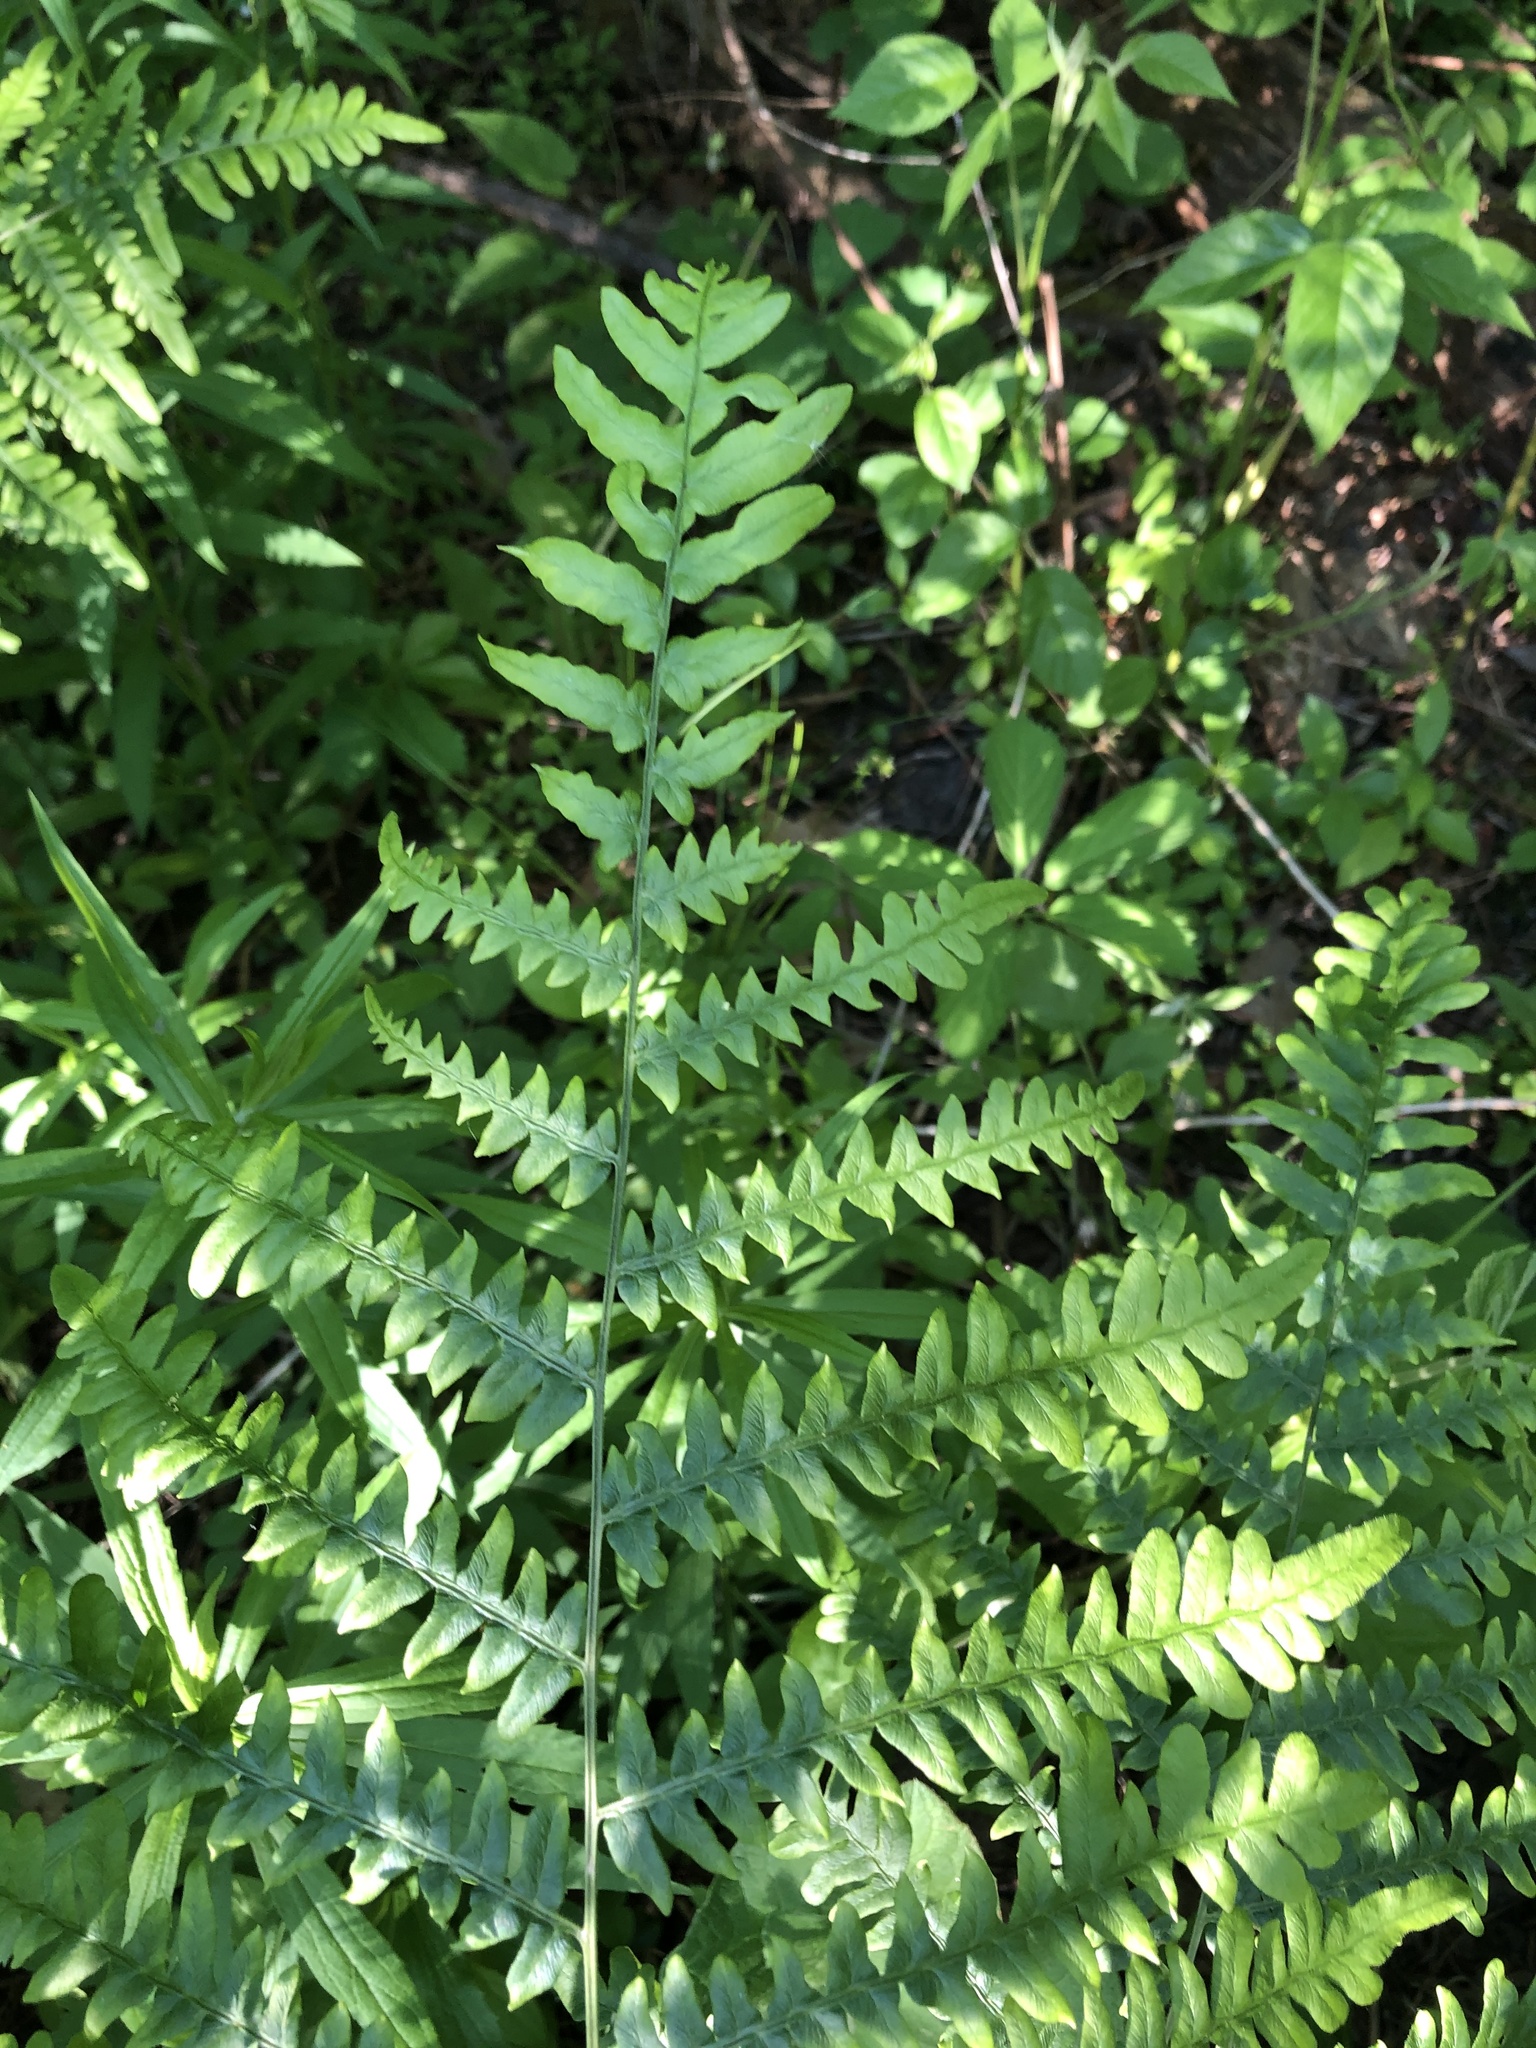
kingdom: Plantae
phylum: Tracheophyta
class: Polypodiopsida
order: Polypodiales
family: Dennstaedtiaceae
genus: Pteridium
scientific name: Pteridium aquilinum
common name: Bracken
